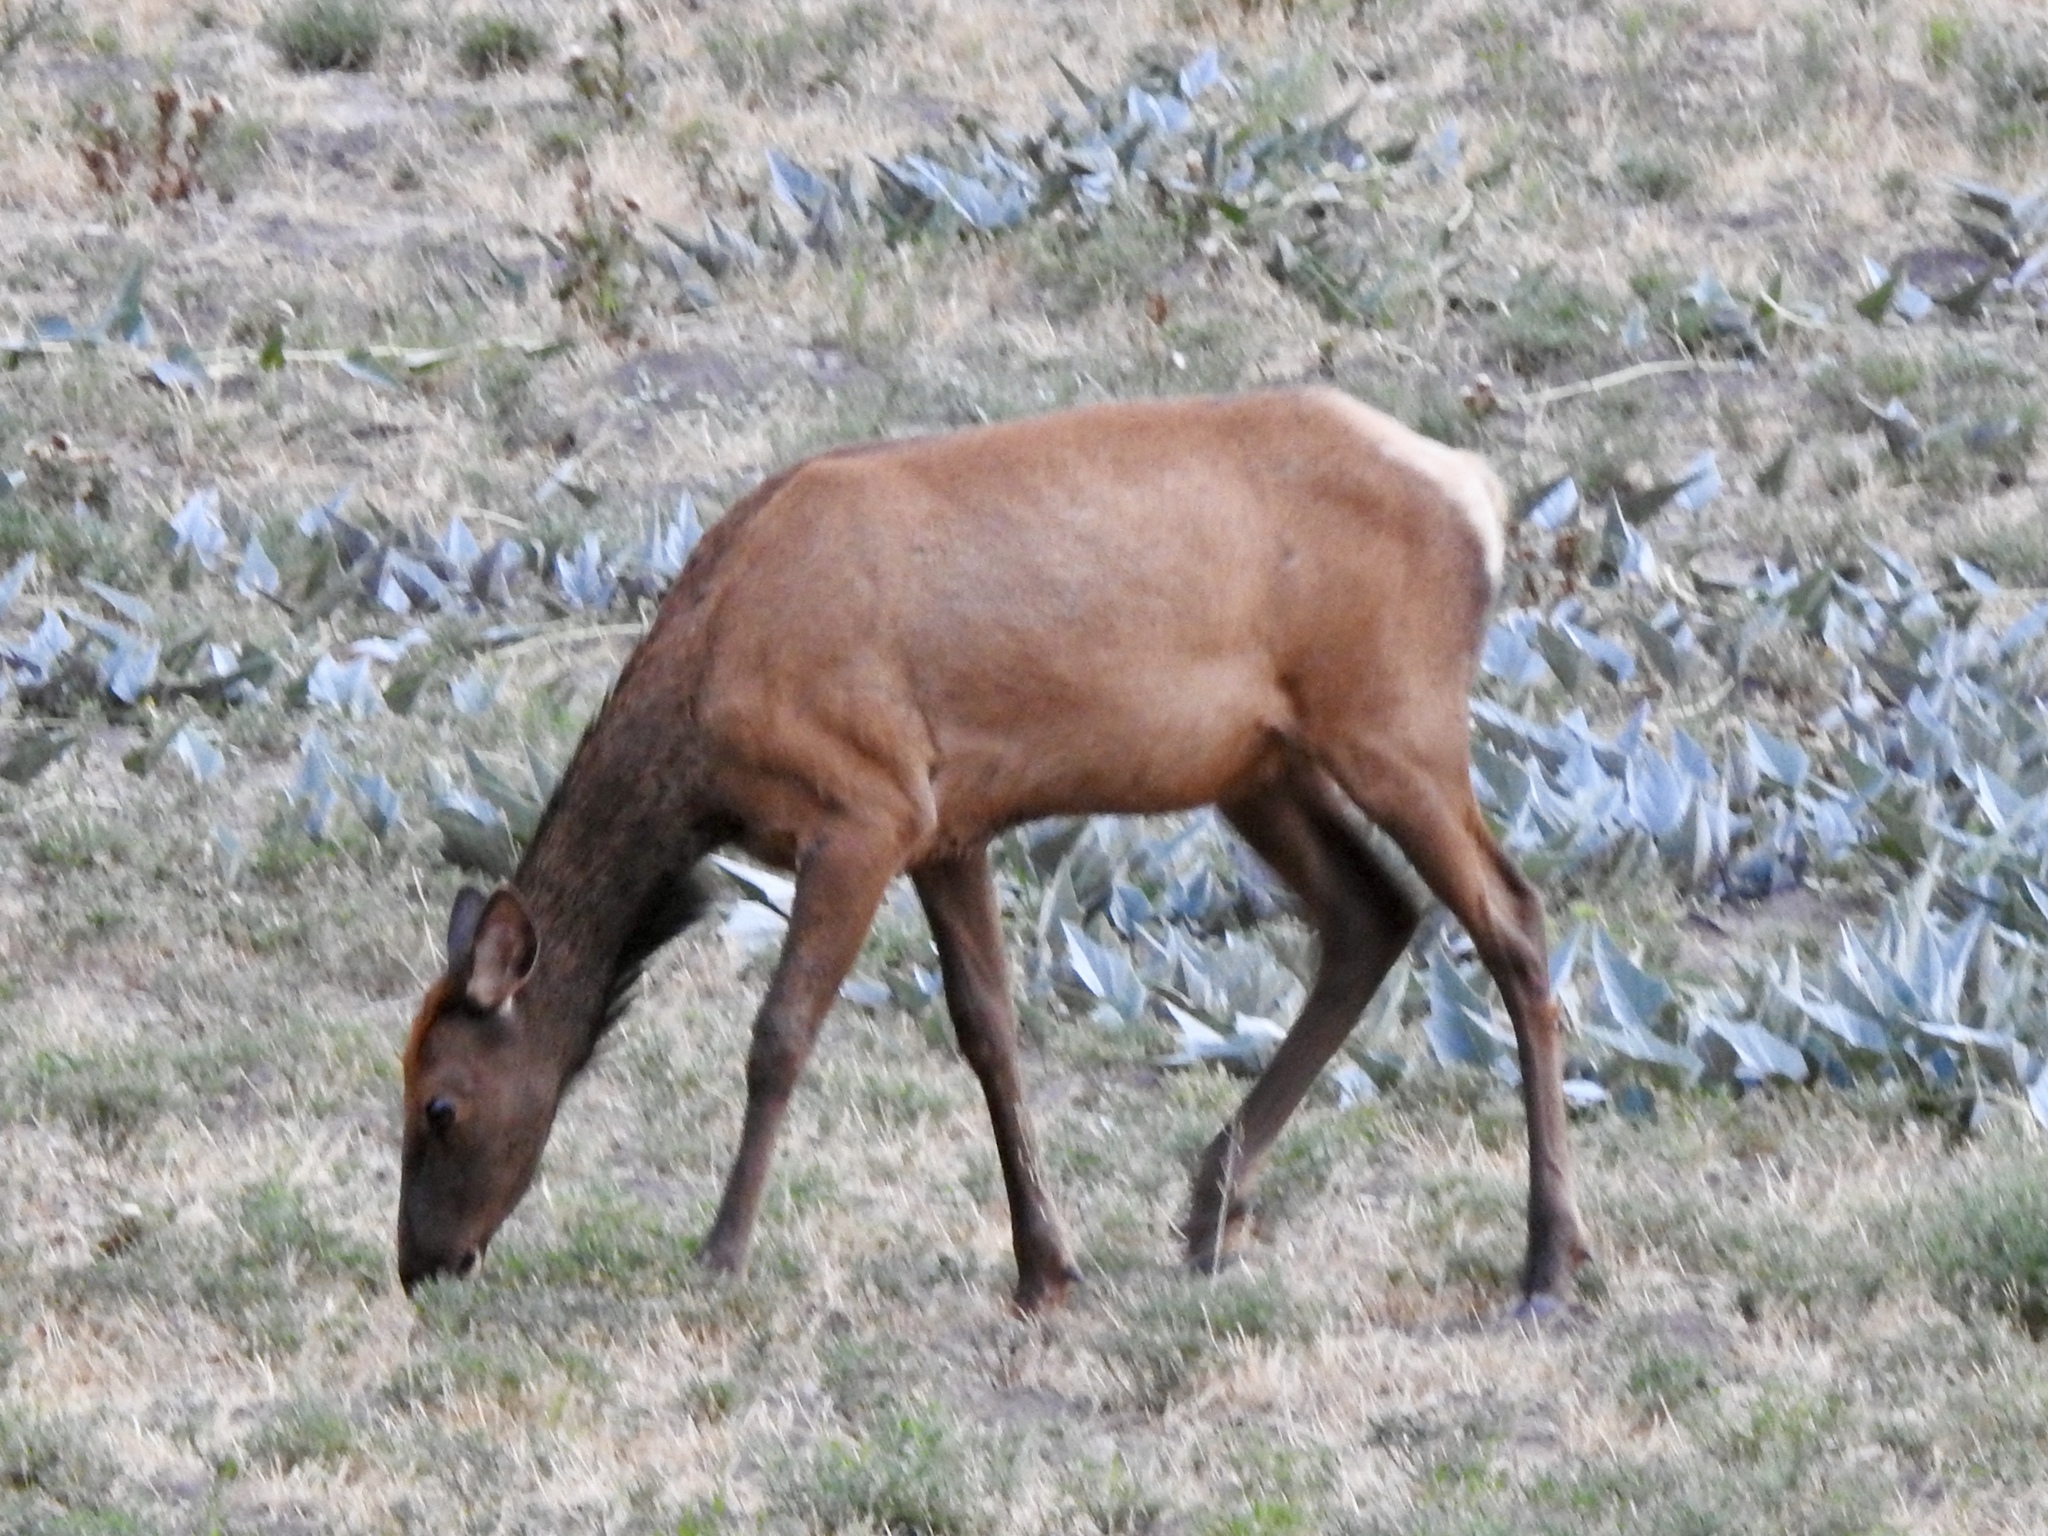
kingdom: Animalia
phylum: Chordata
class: Mammalia
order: Artiodactyla
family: Cervidae
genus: Cervus
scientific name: Cervus elaphus
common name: Red deer
